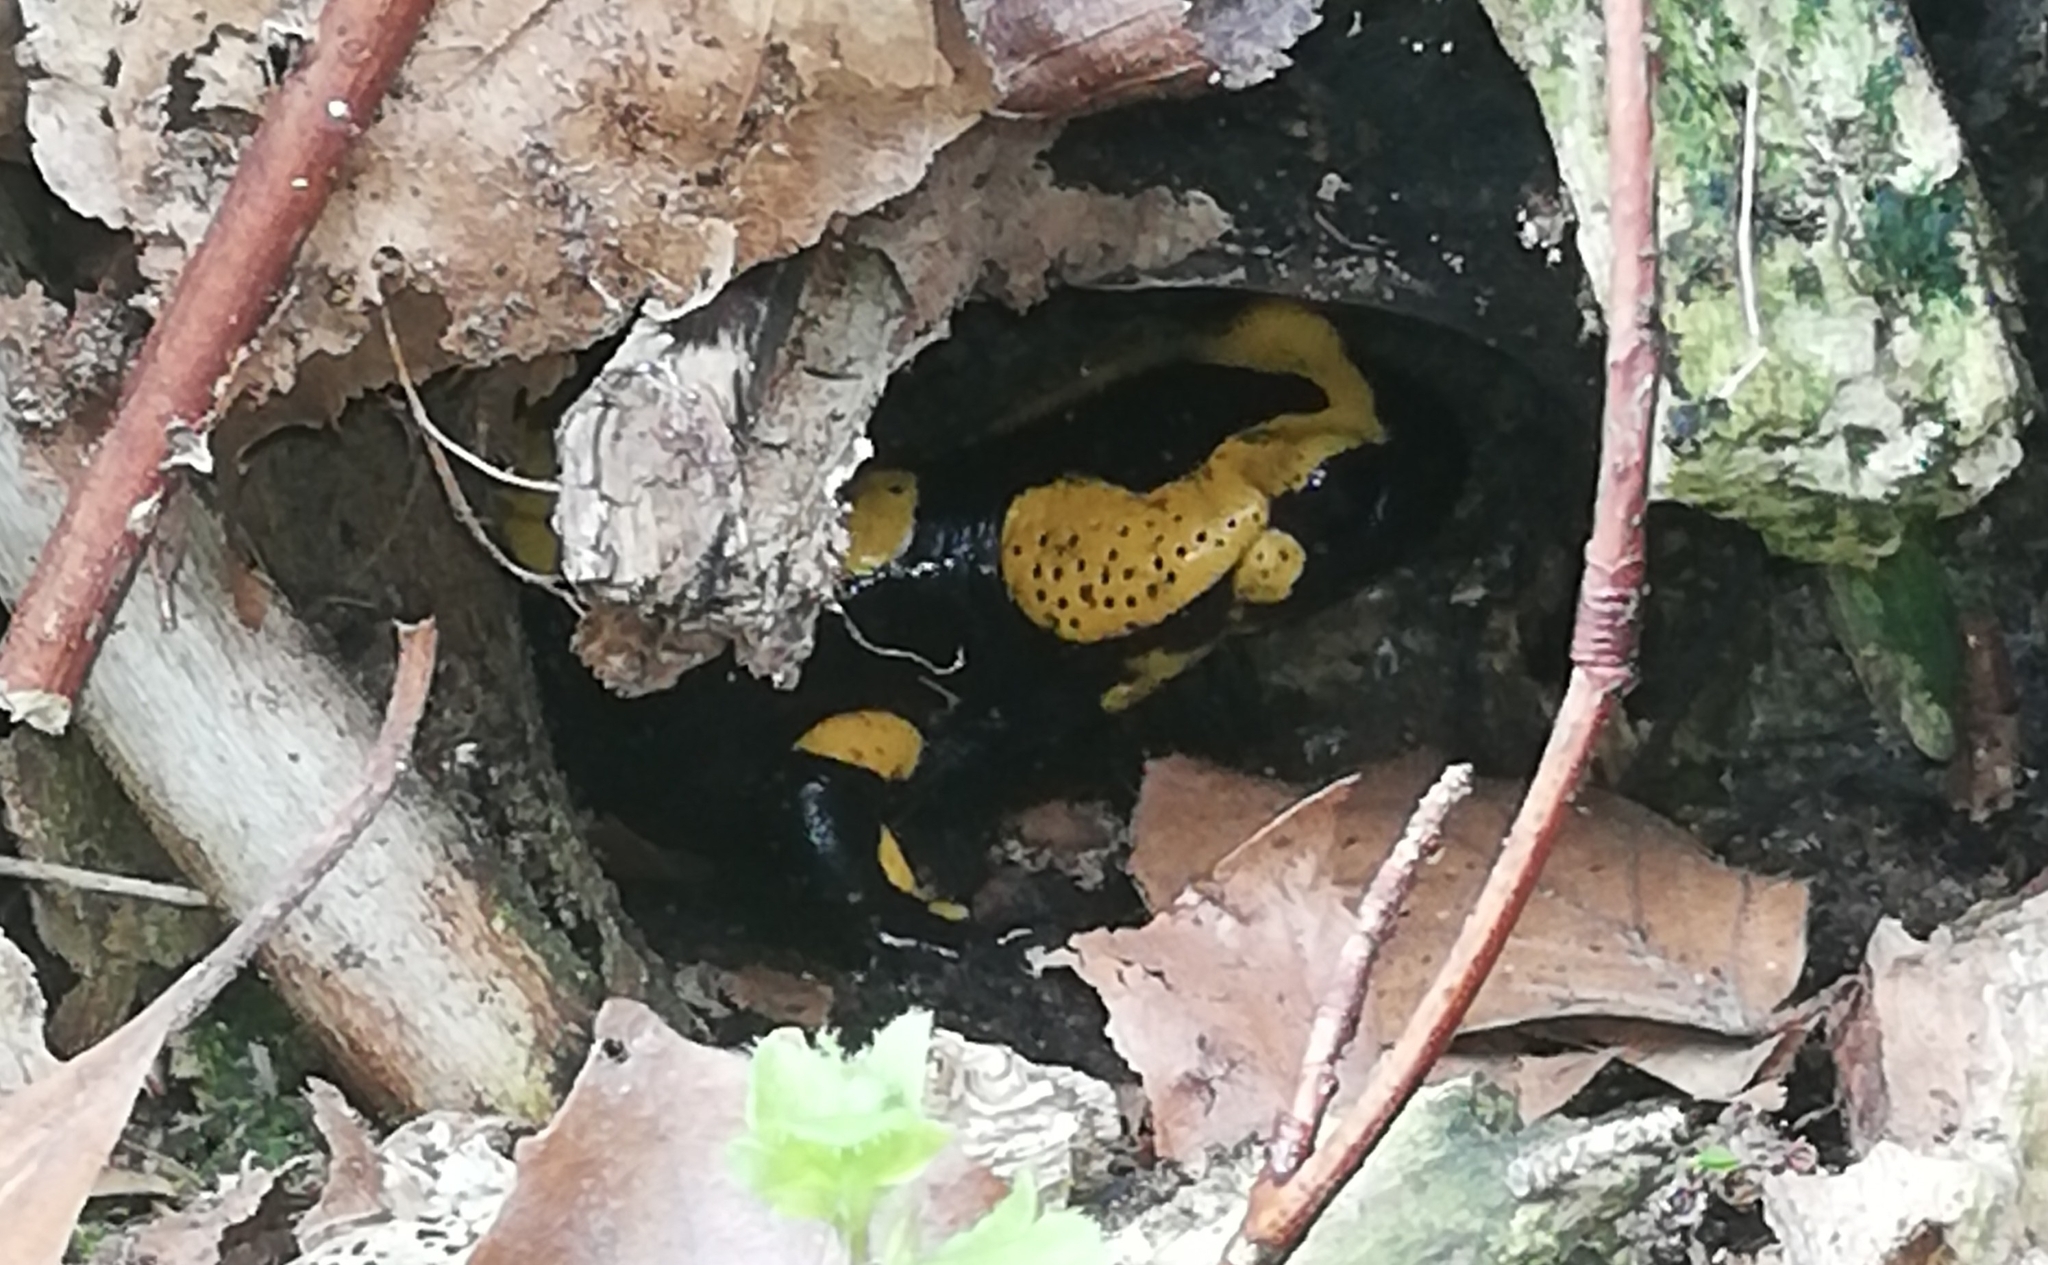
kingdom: Animalia
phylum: Chordata
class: Amphibia
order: Caudata
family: Salamandridae
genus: Salamandra
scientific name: Salamandra salamandra
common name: Fire salamander
